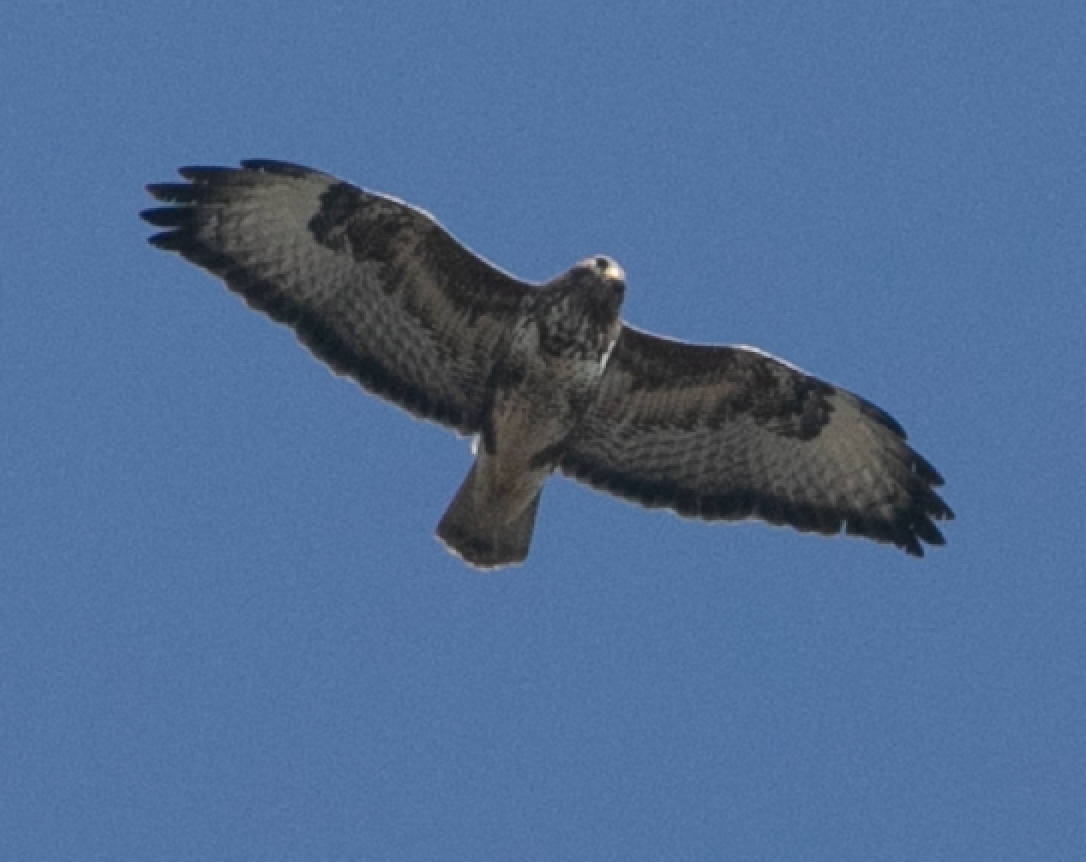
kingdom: Animalia
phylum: Chordata
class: Aves
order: Accipitriformes
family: Accipitridae
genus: Buteo
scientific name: Buteo buteo
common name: Common buzzard
